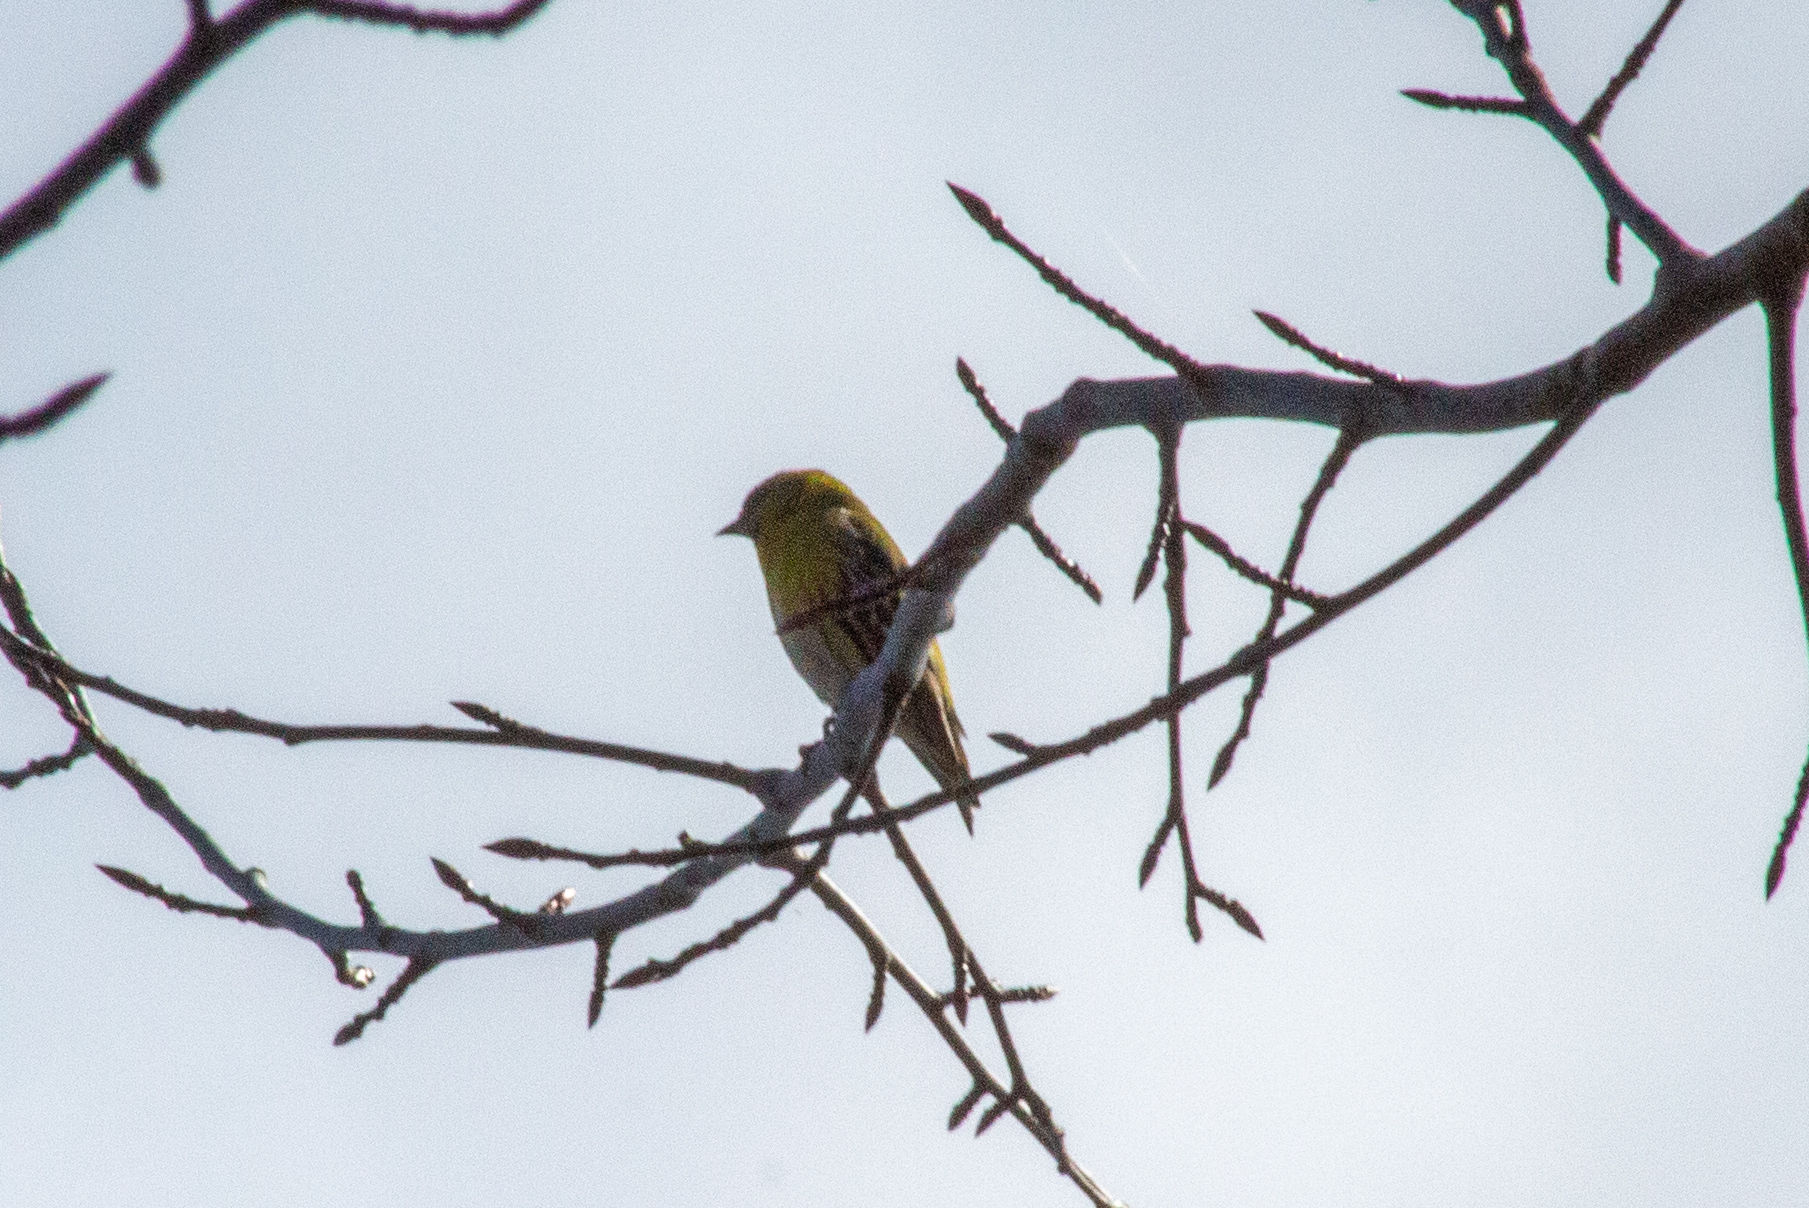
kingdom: Animalia
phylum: Chordata
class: Aves
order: Passeriformes
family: Fringillidae
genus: Spinus
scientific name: Spinus spinus
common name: Eurasian siskin
